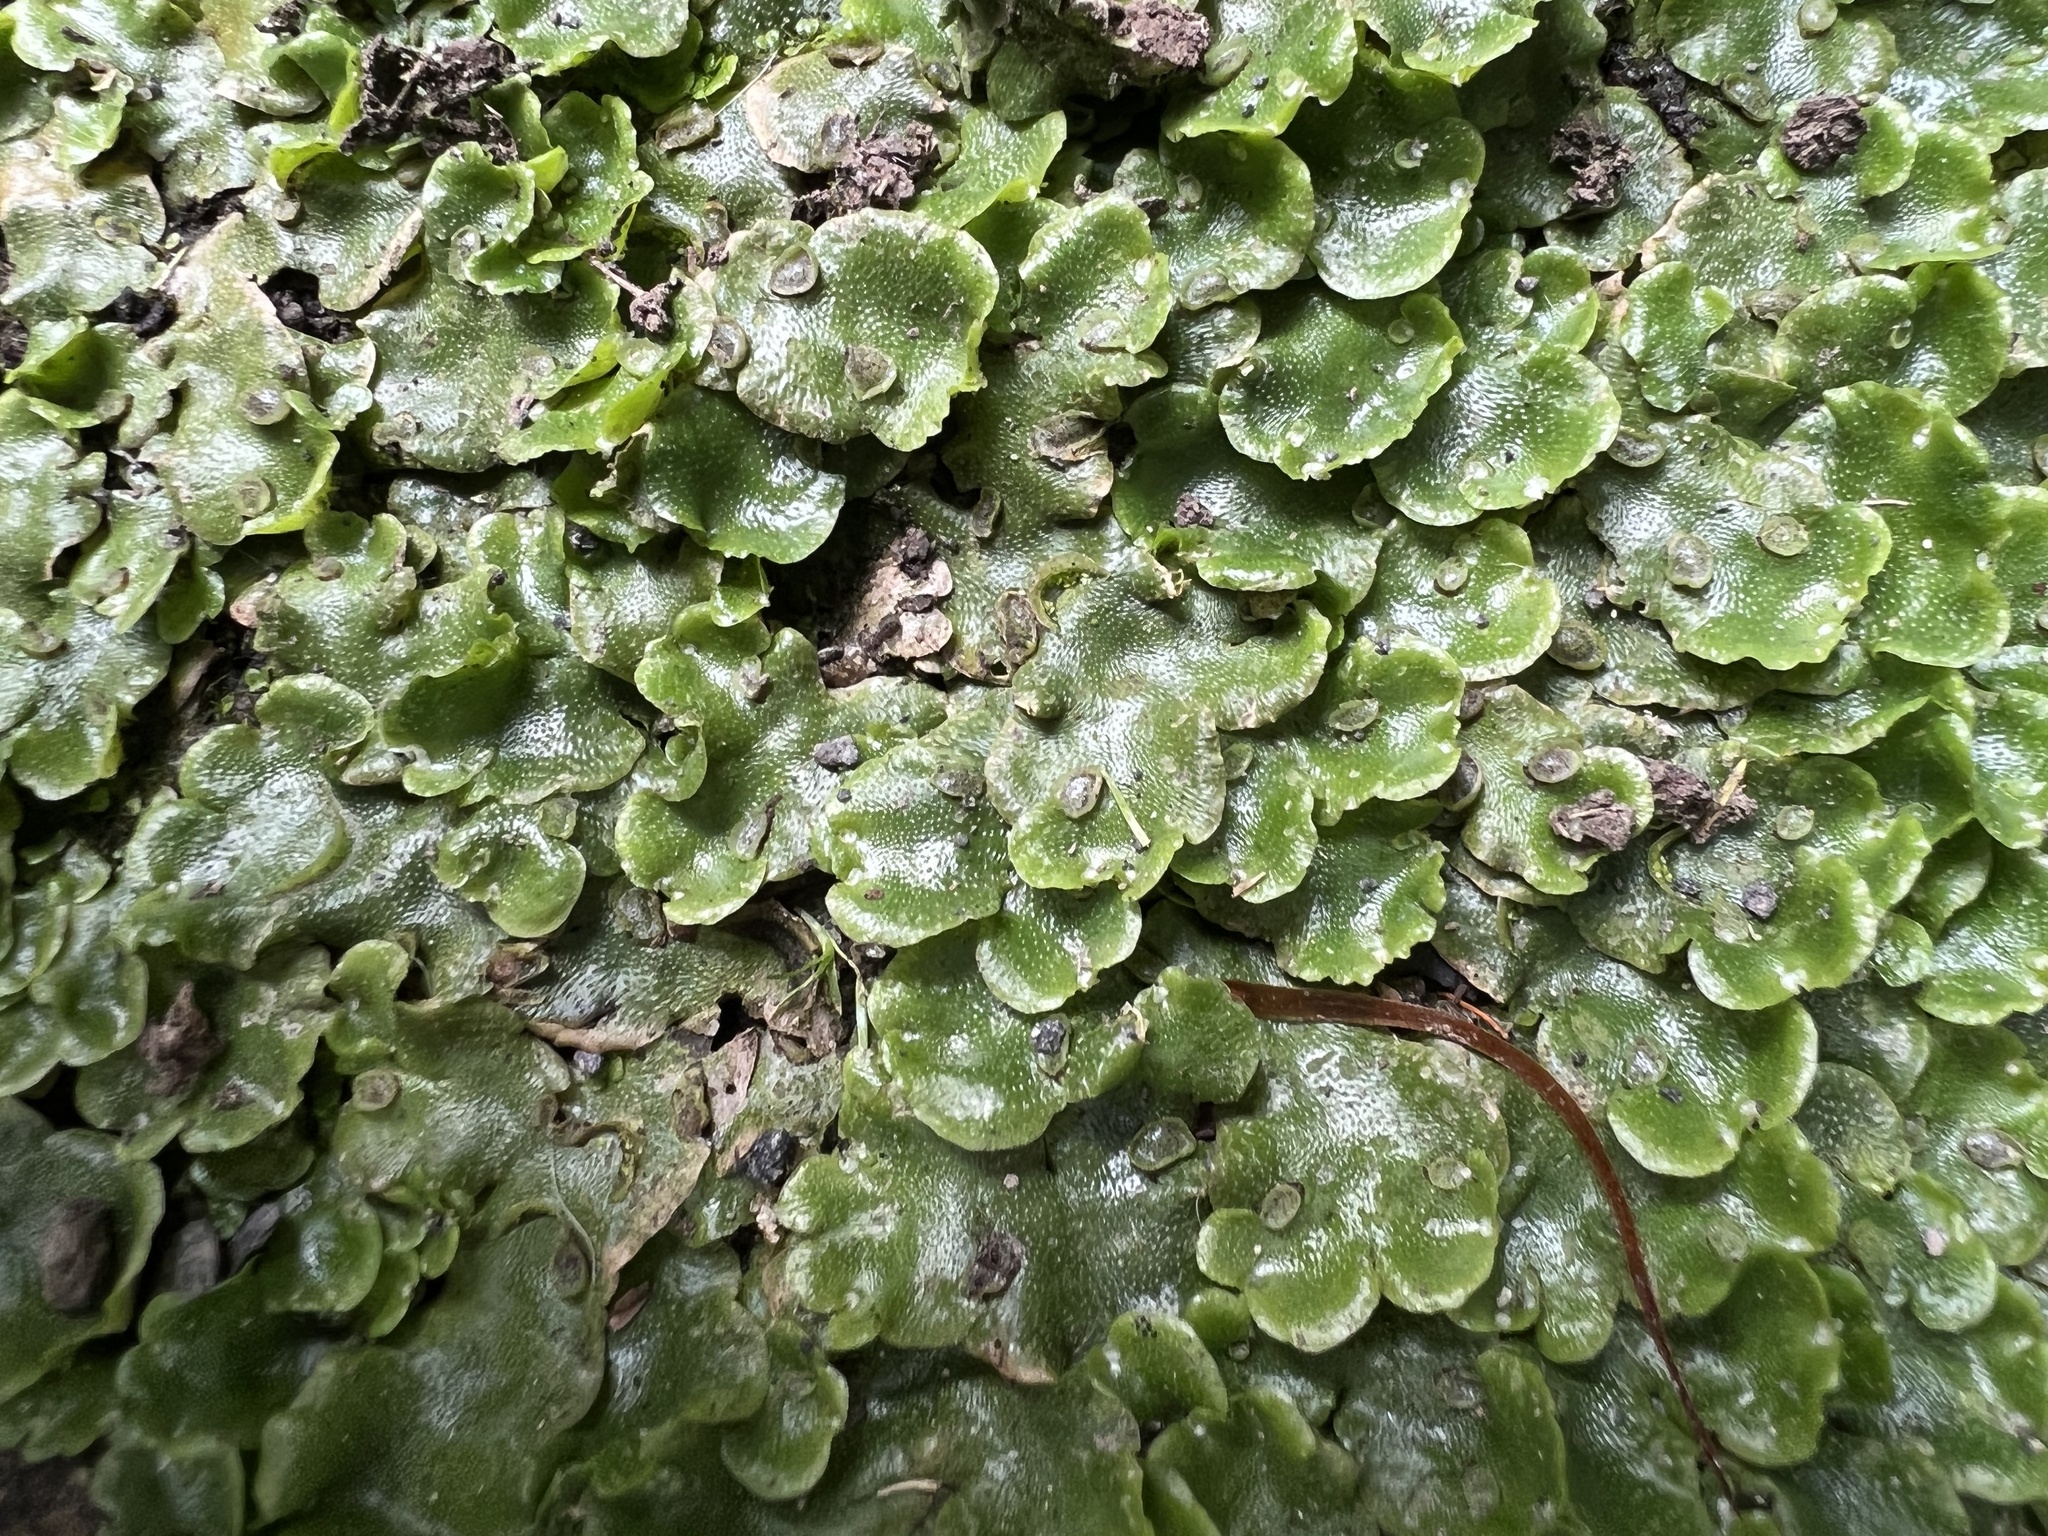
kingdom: Plantae
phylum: Marchantiophyta
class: Marchantiopsida
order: Lunulariales
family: Lunulariaceae
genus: Lunularia
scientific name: Lunularia cruciata
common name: Crescent-cup liverwort
